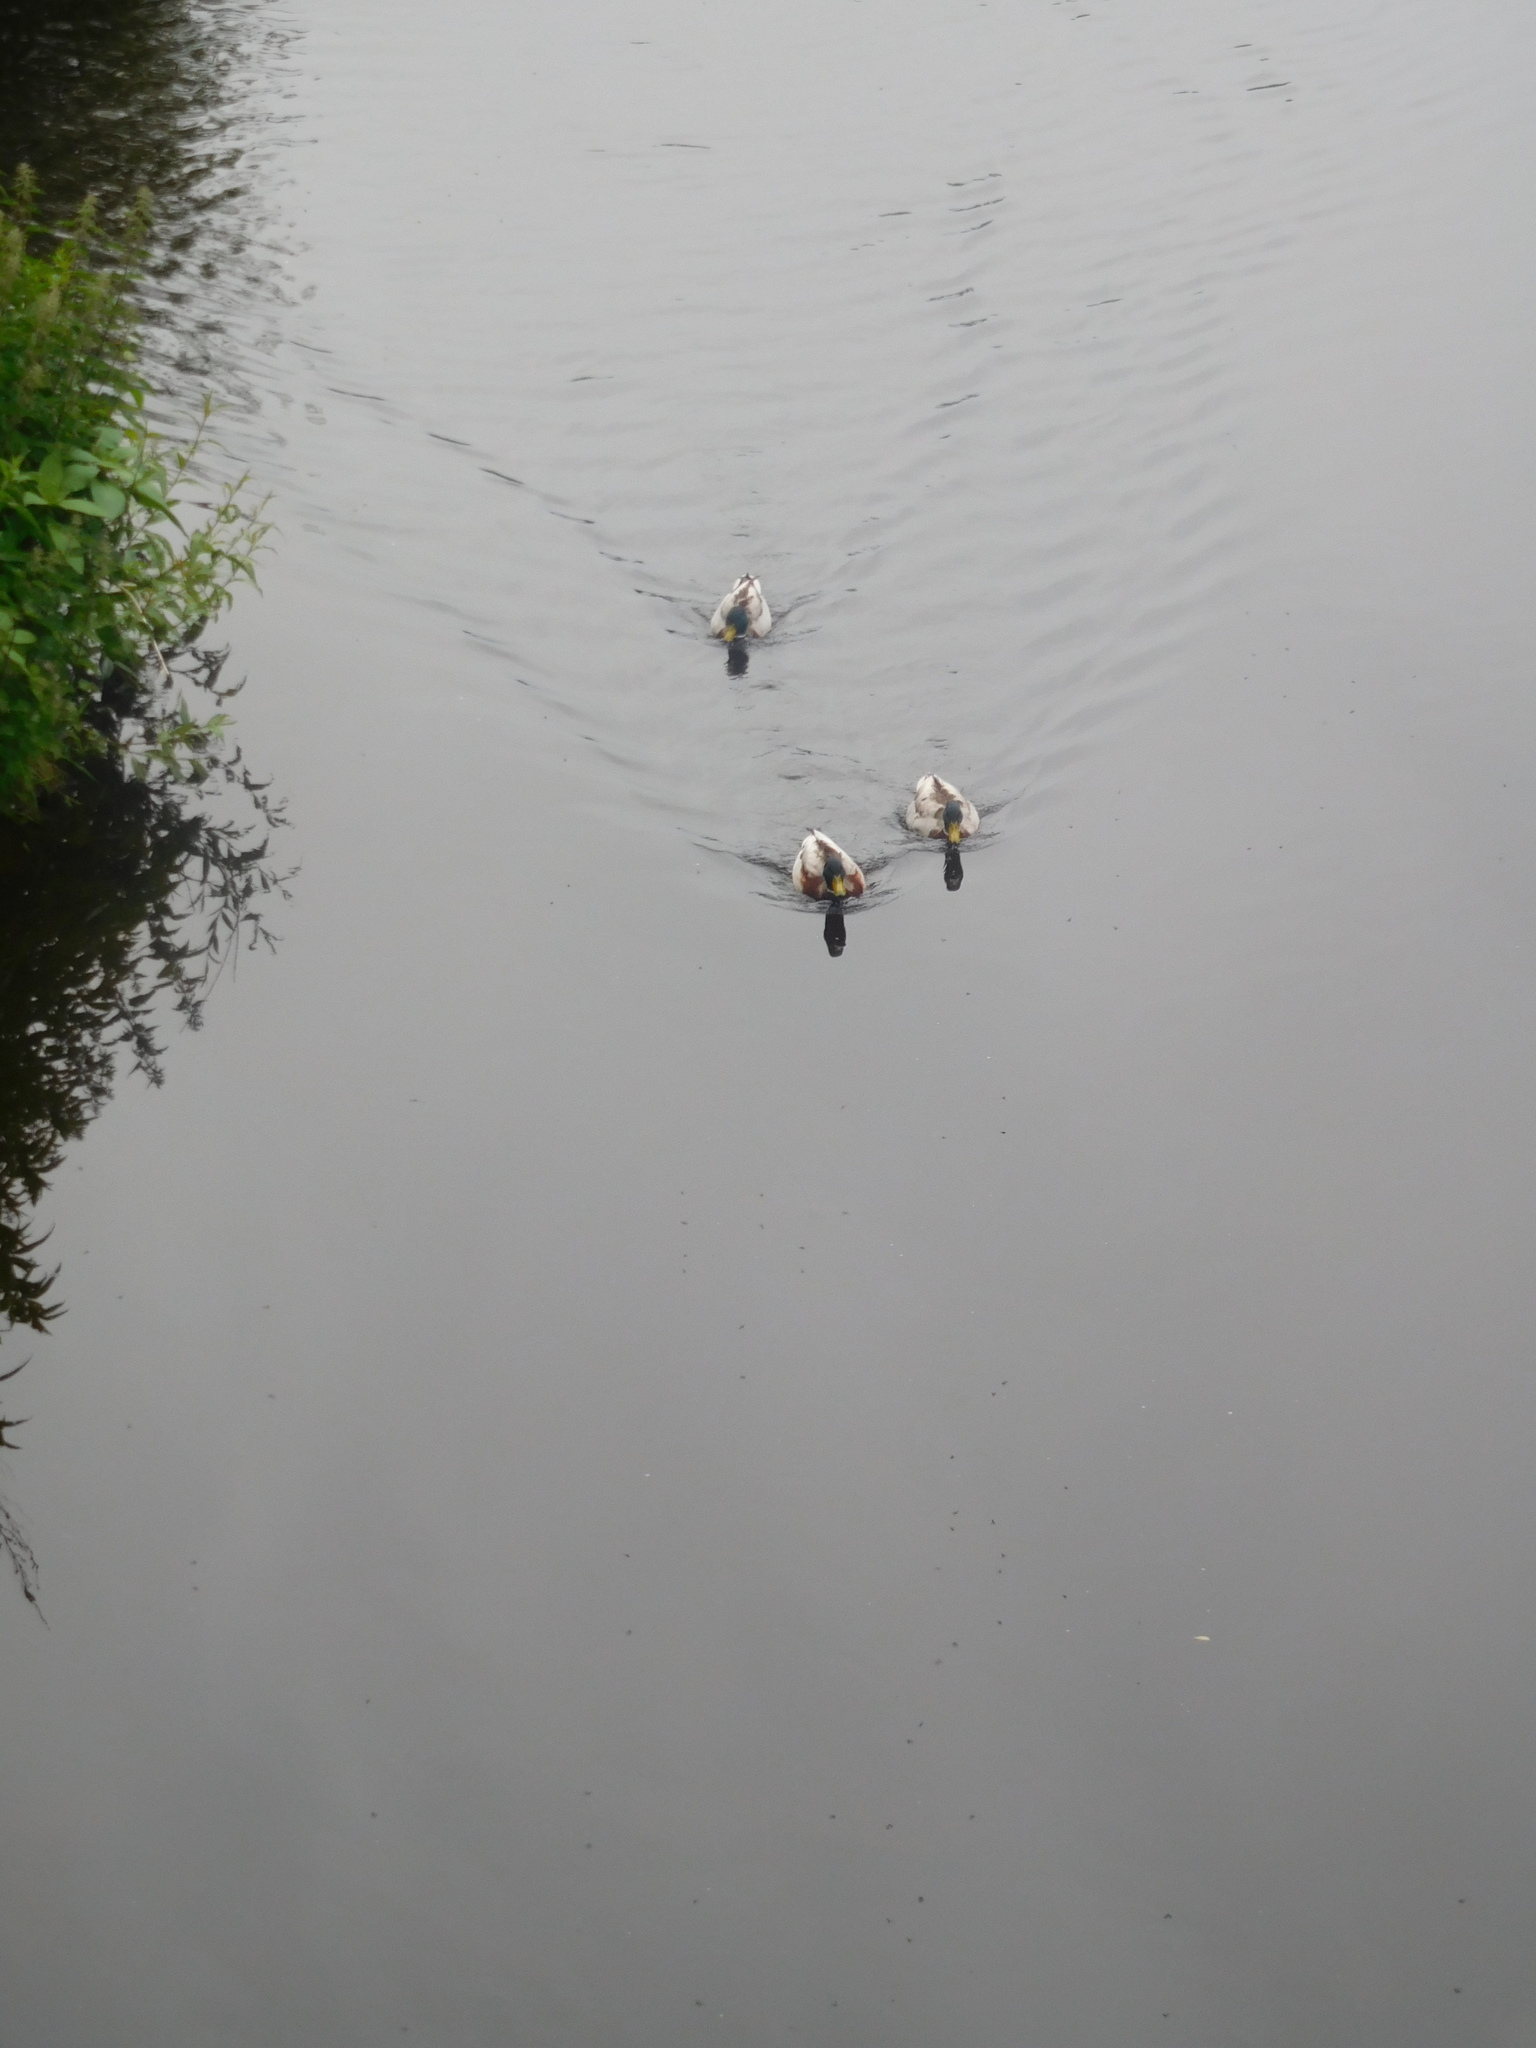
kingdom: Animalia
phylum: Chordata
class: Aves
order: Anseriformes
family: Anatidae
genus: Anas
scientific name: Anas platyrhynchos
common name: Mallard
